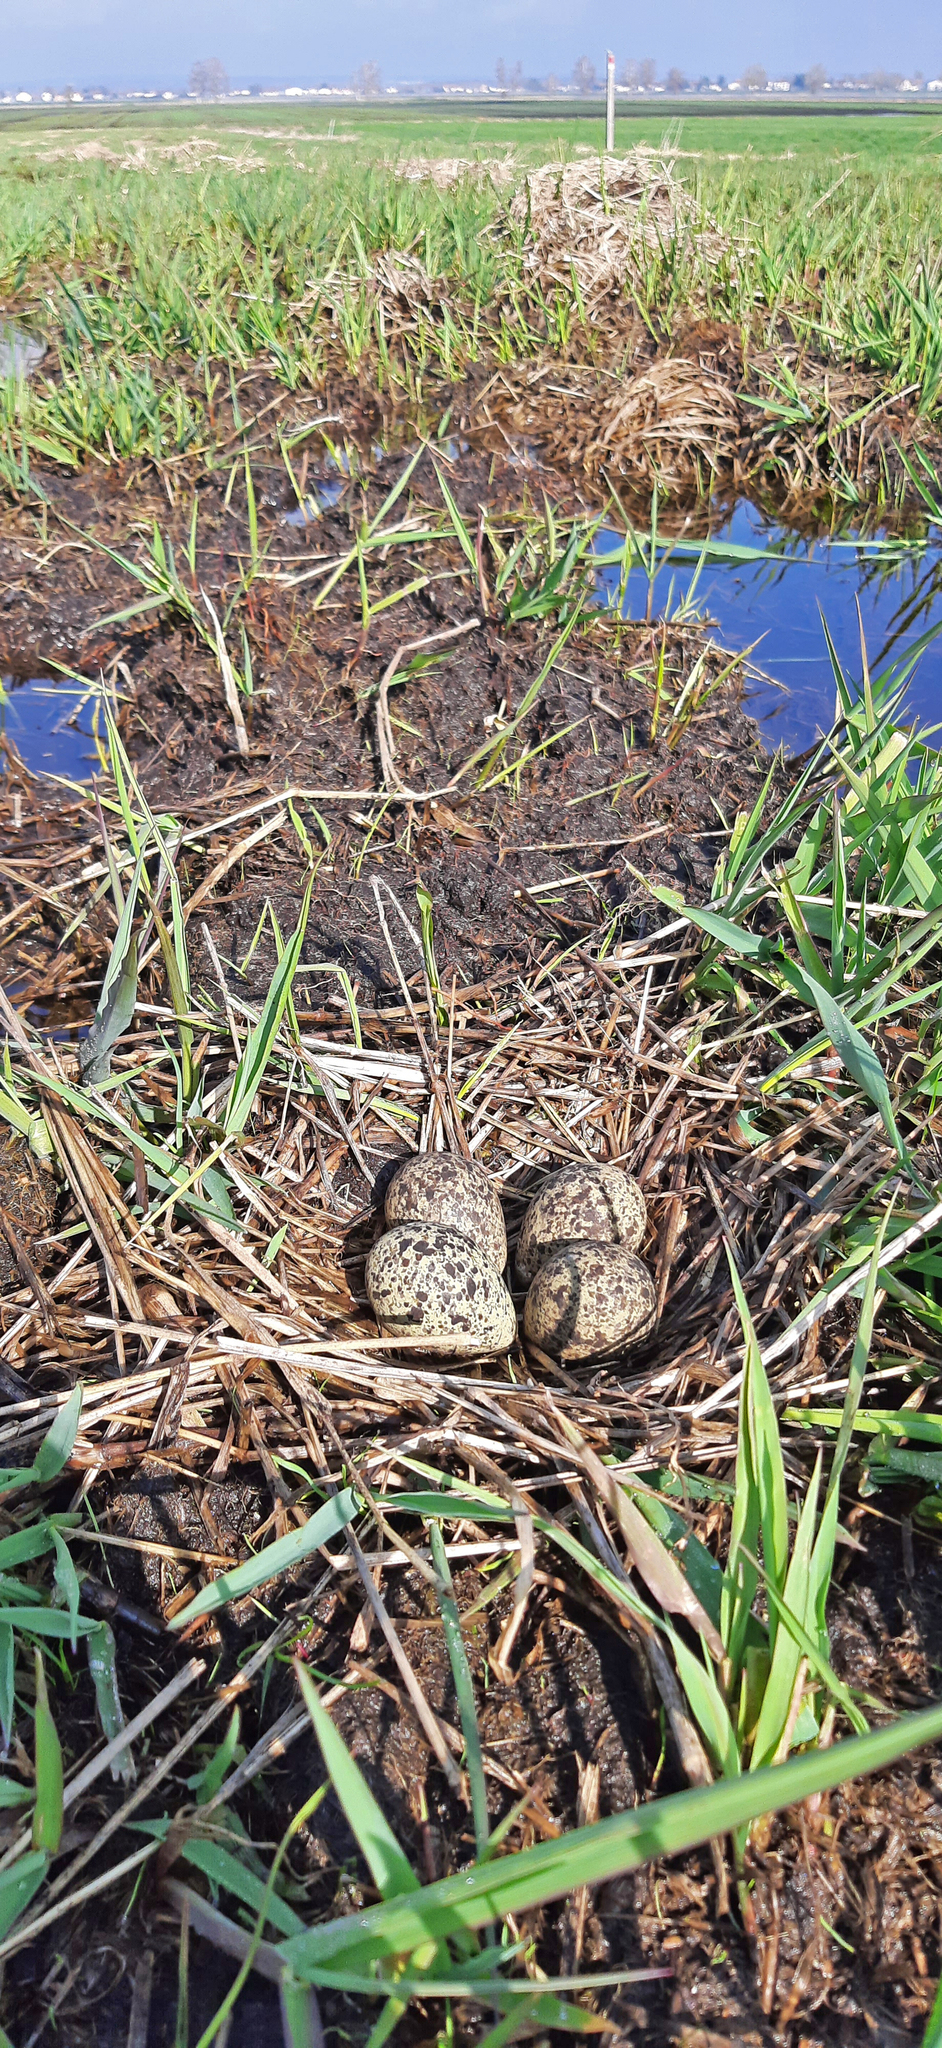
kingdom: Animalia
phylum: Chordata
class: Aves
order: Charadriiformes
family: Charadriidae
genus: Vanellus
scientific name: Vanellus vanellus
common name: Northern lapwing
